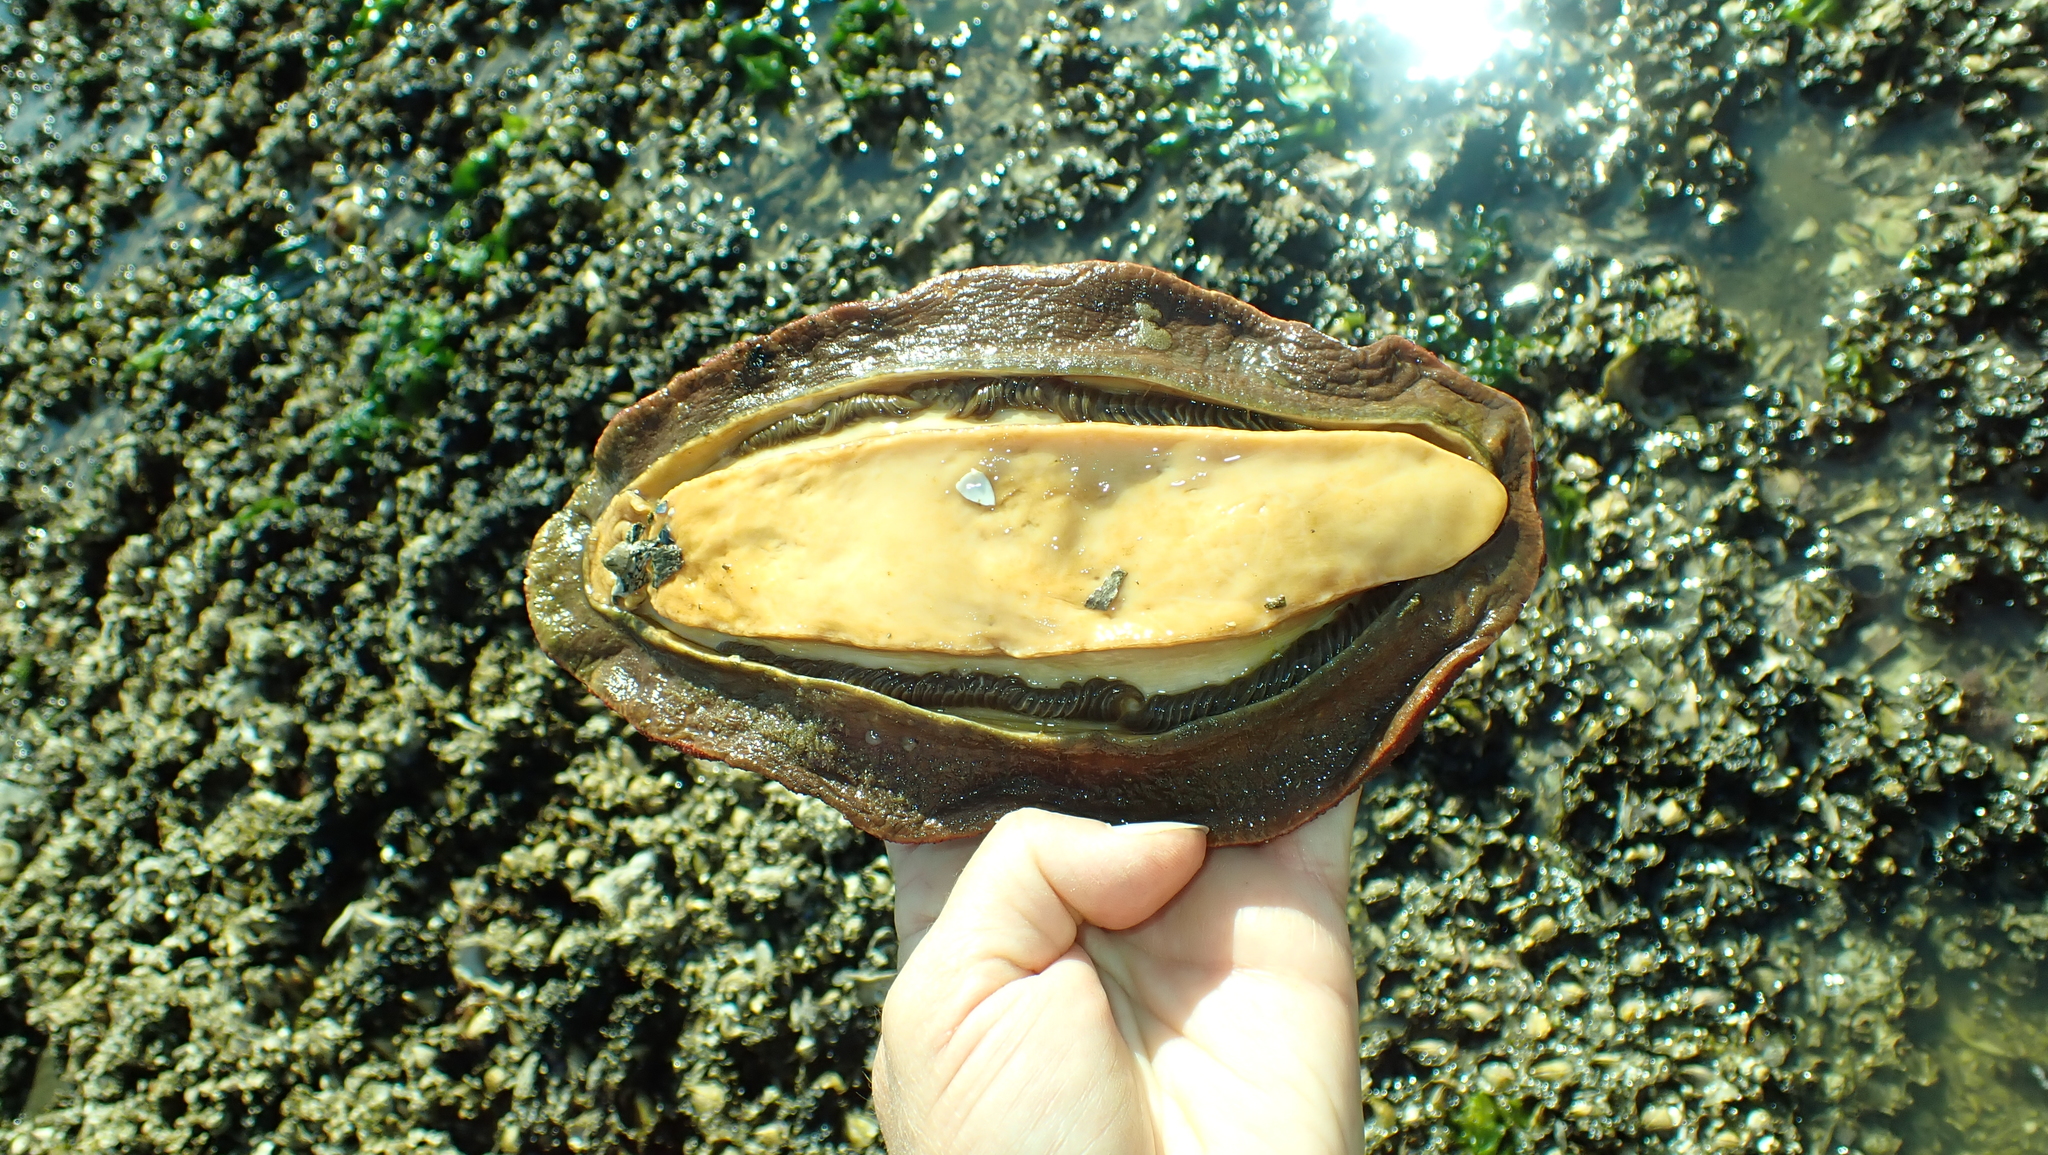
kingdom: Animalia
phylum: Mollusca
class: Polyplacophora
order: Chitonida
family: Acanthochitonidae
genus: Cryptochiton
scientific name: Cryptochiton stelleri
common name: Giant pacific chiton
